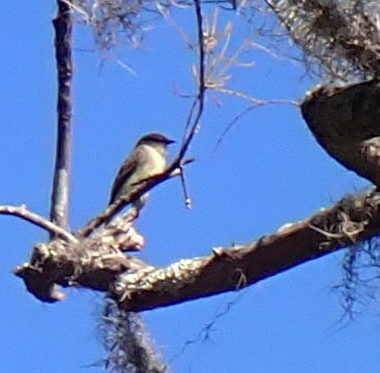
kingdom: Animalia
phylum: Chordata
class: Aves
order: Passeriformes
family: Tyrannidae
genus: Sayornis
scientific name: Sayornis phoebe
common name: Eastern phoebe
